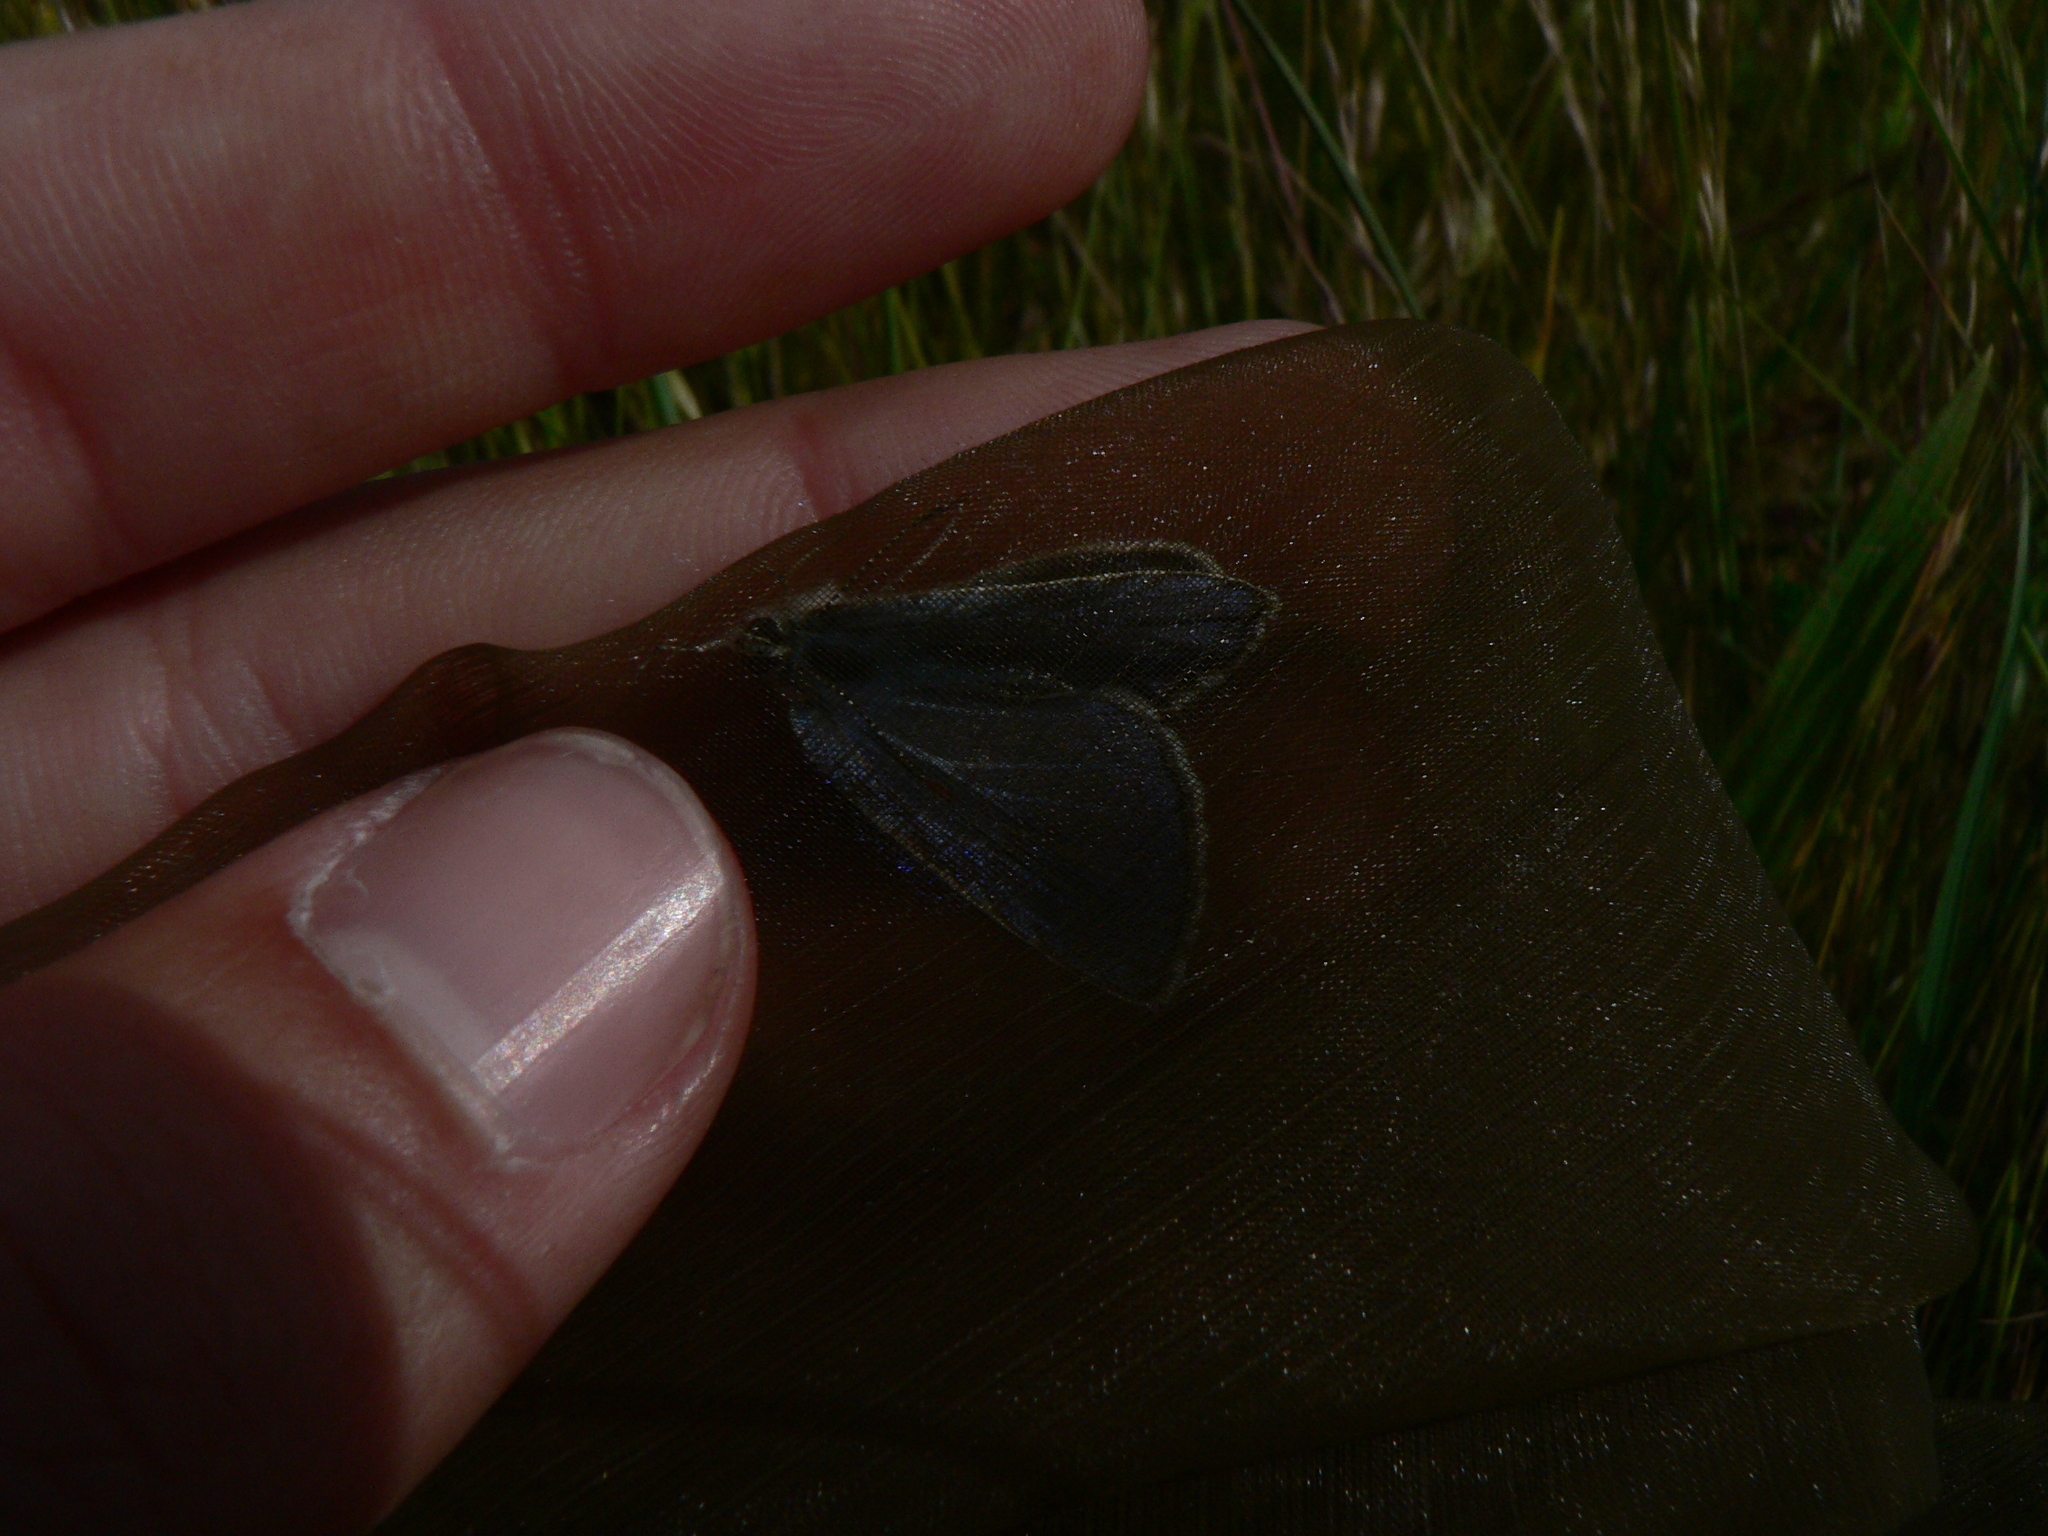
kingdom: Animalia
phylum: Arthropoda
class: Insecta
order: Lepidoptera
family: Lycaenidae
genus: Plebicula
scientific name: Plebicula escheri
